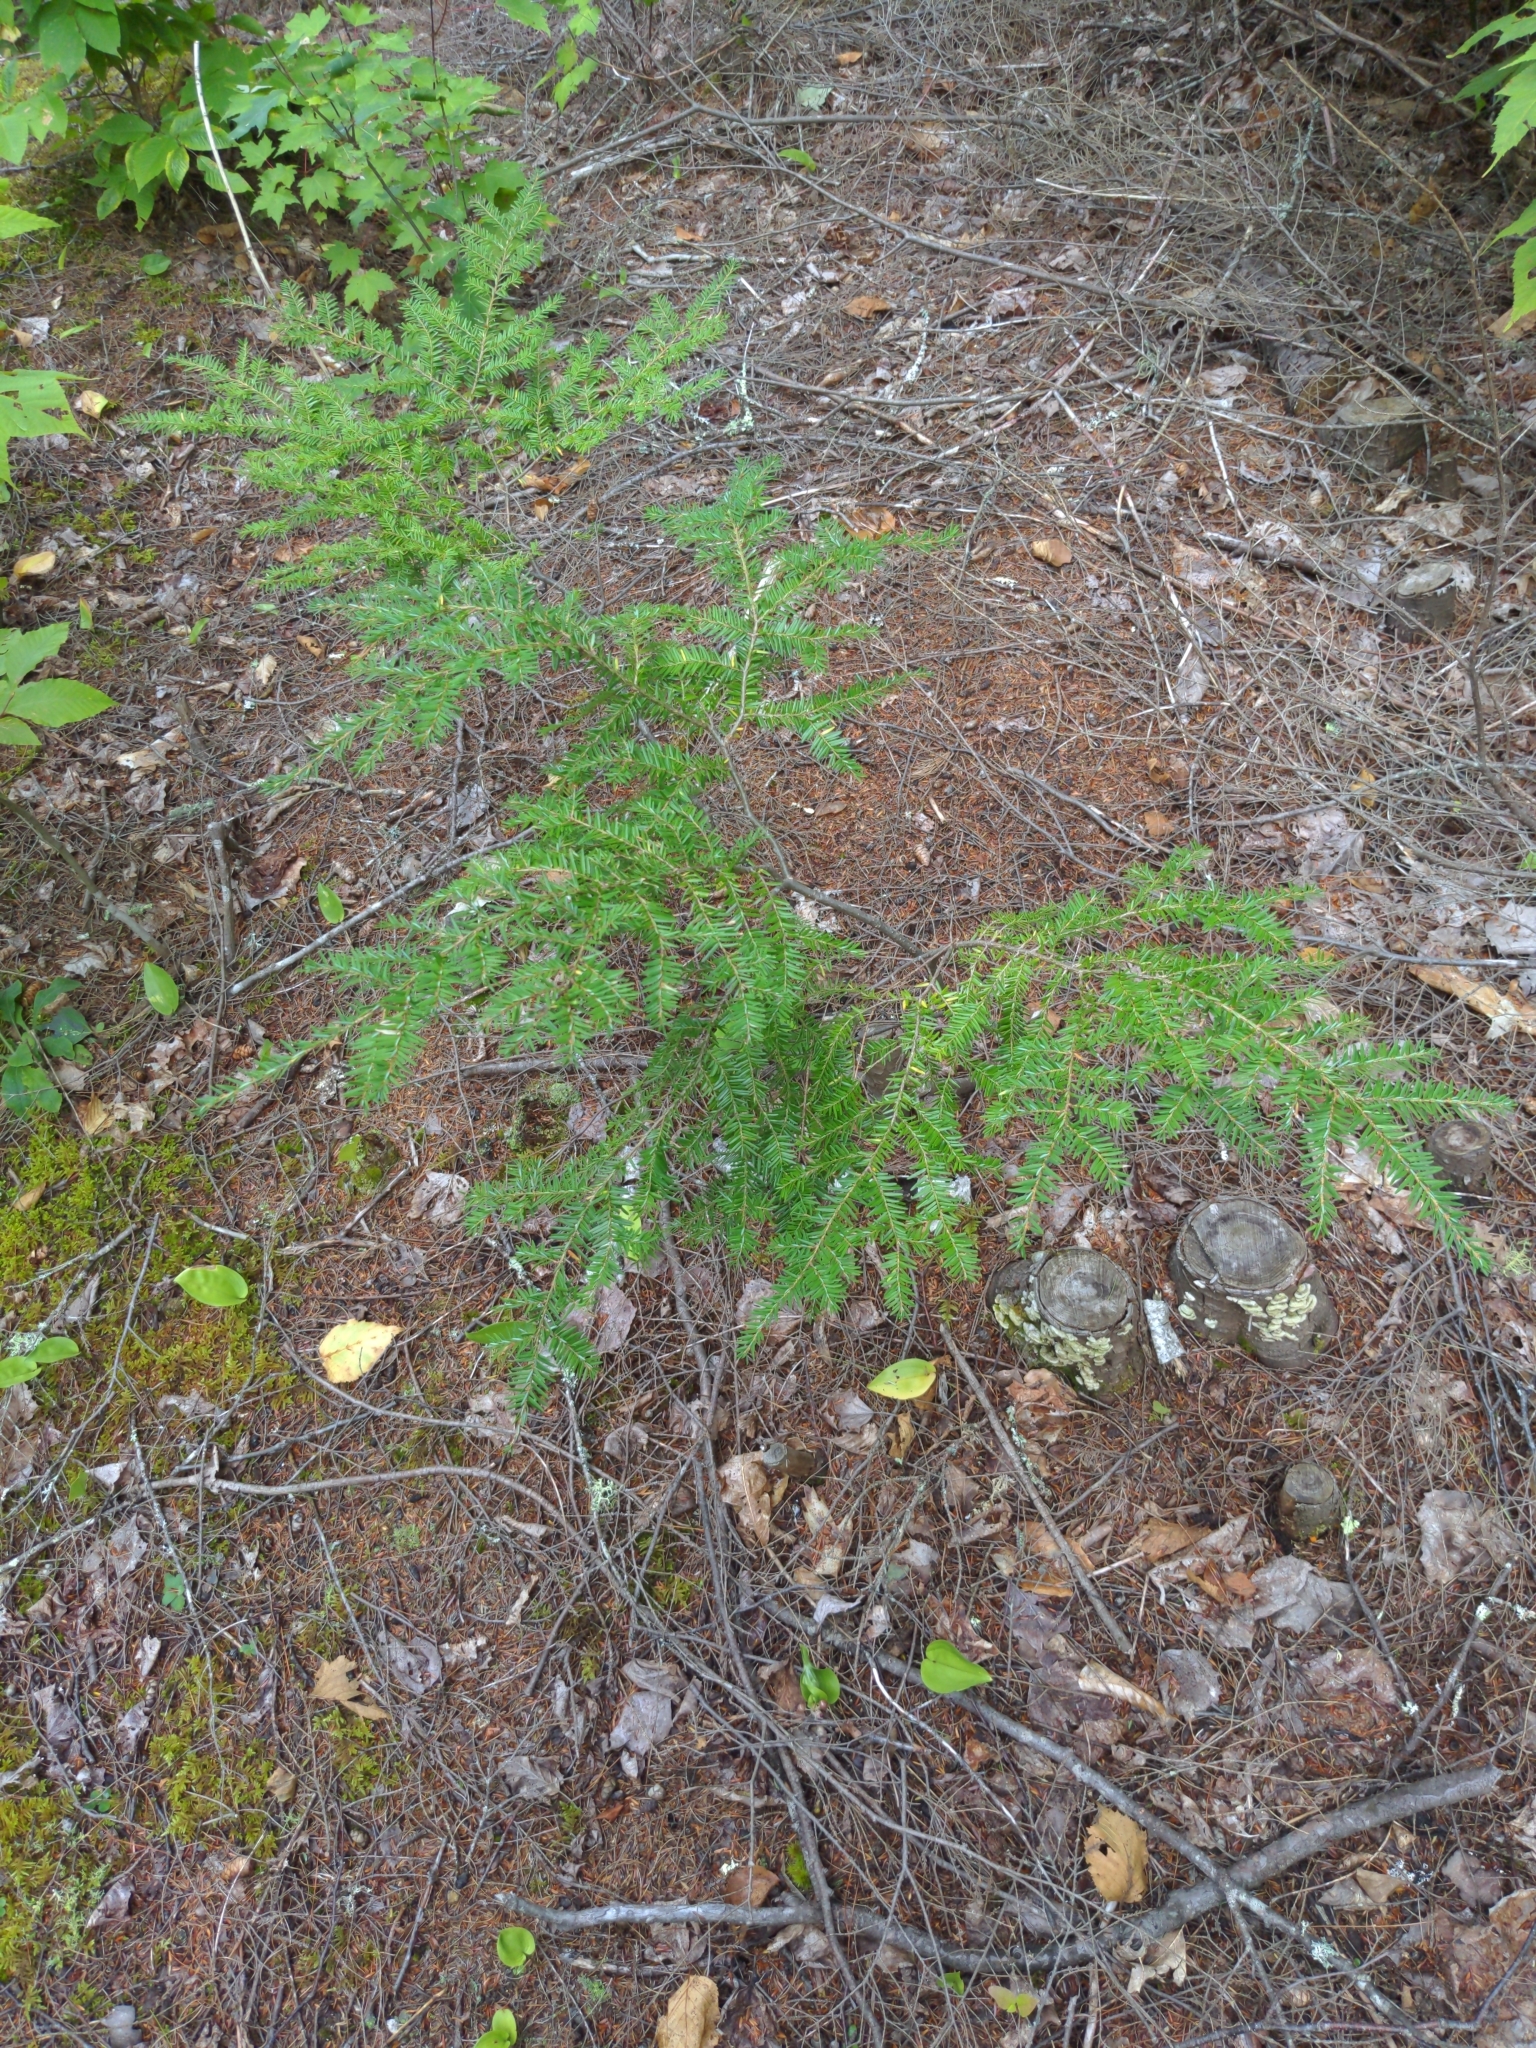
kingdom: Plantae
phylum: Tracheophyta
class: Pinopsida
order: Pinales
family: Pinaceae
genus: Tsuga
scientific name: Tsuga canadensis
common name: Eastern hemlock
